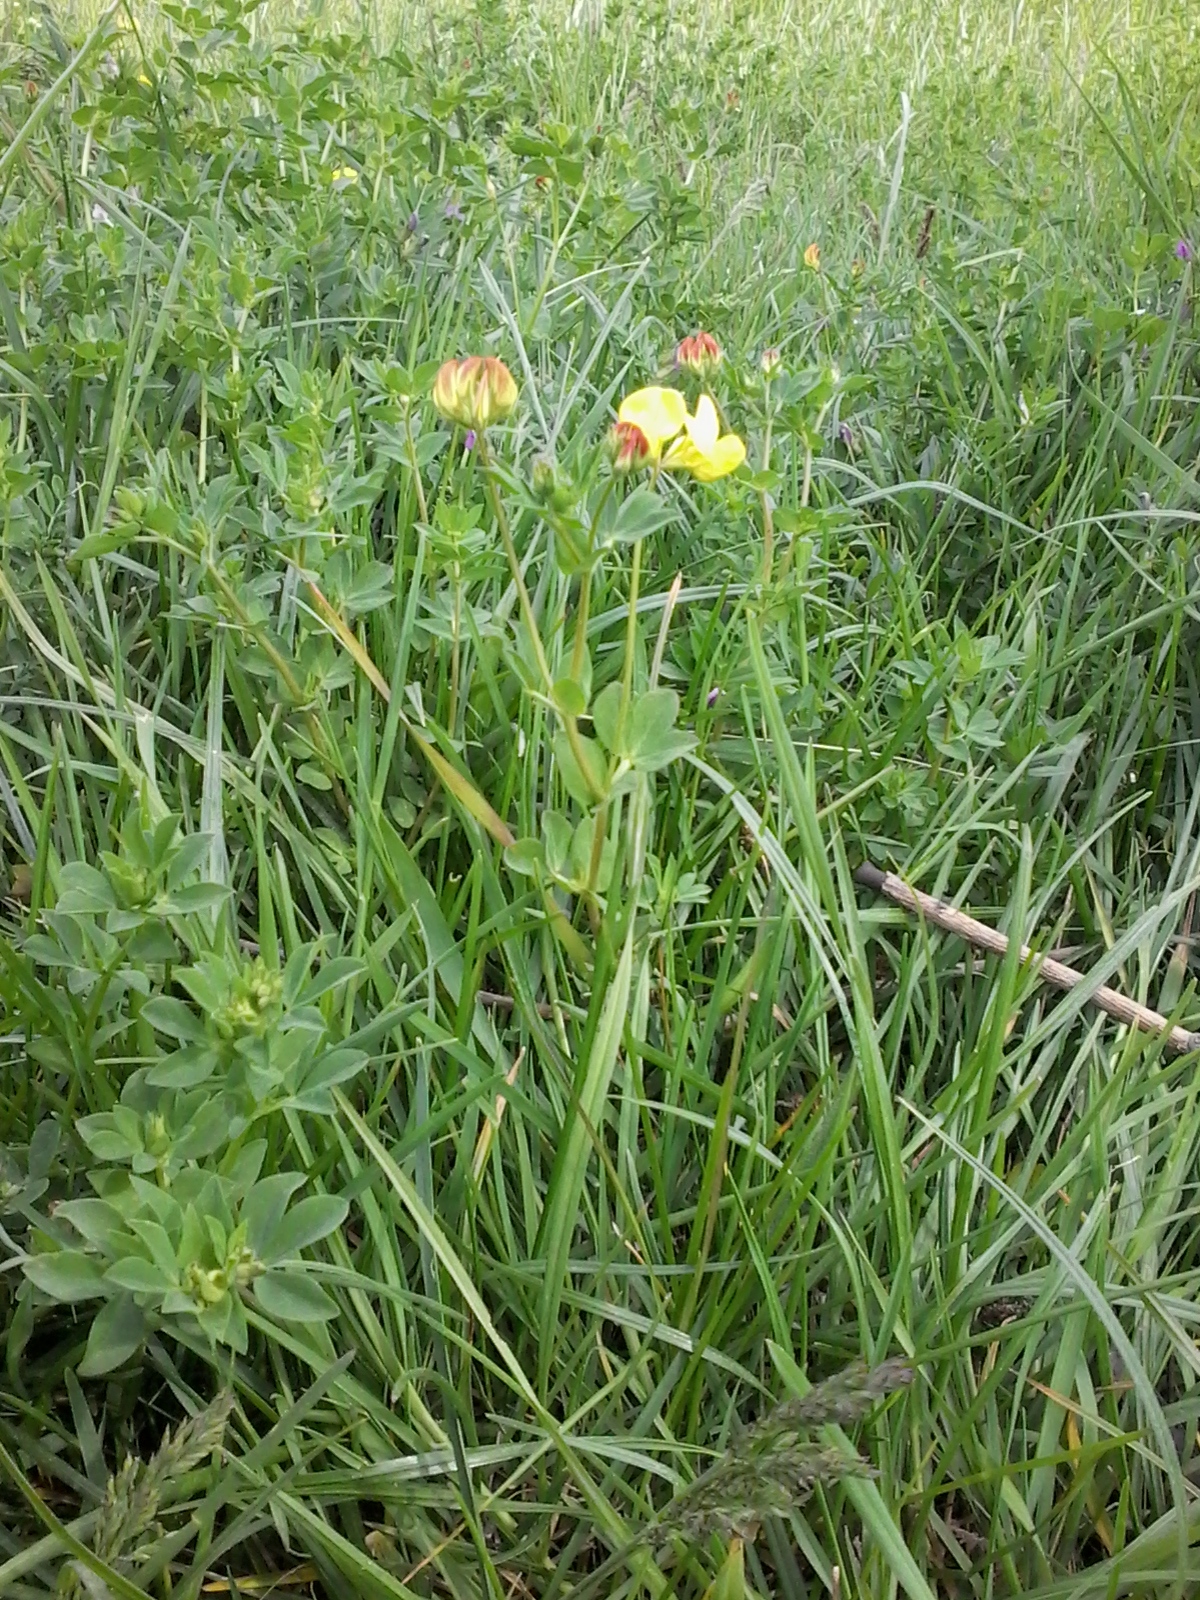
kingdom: Plantae
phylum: Tracheophyta
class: Magnoliopsida
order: Fabales
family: Fabaceae
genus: Lotus
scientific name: Lotus corniculatus
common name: Common bird's-foot-trefoil
